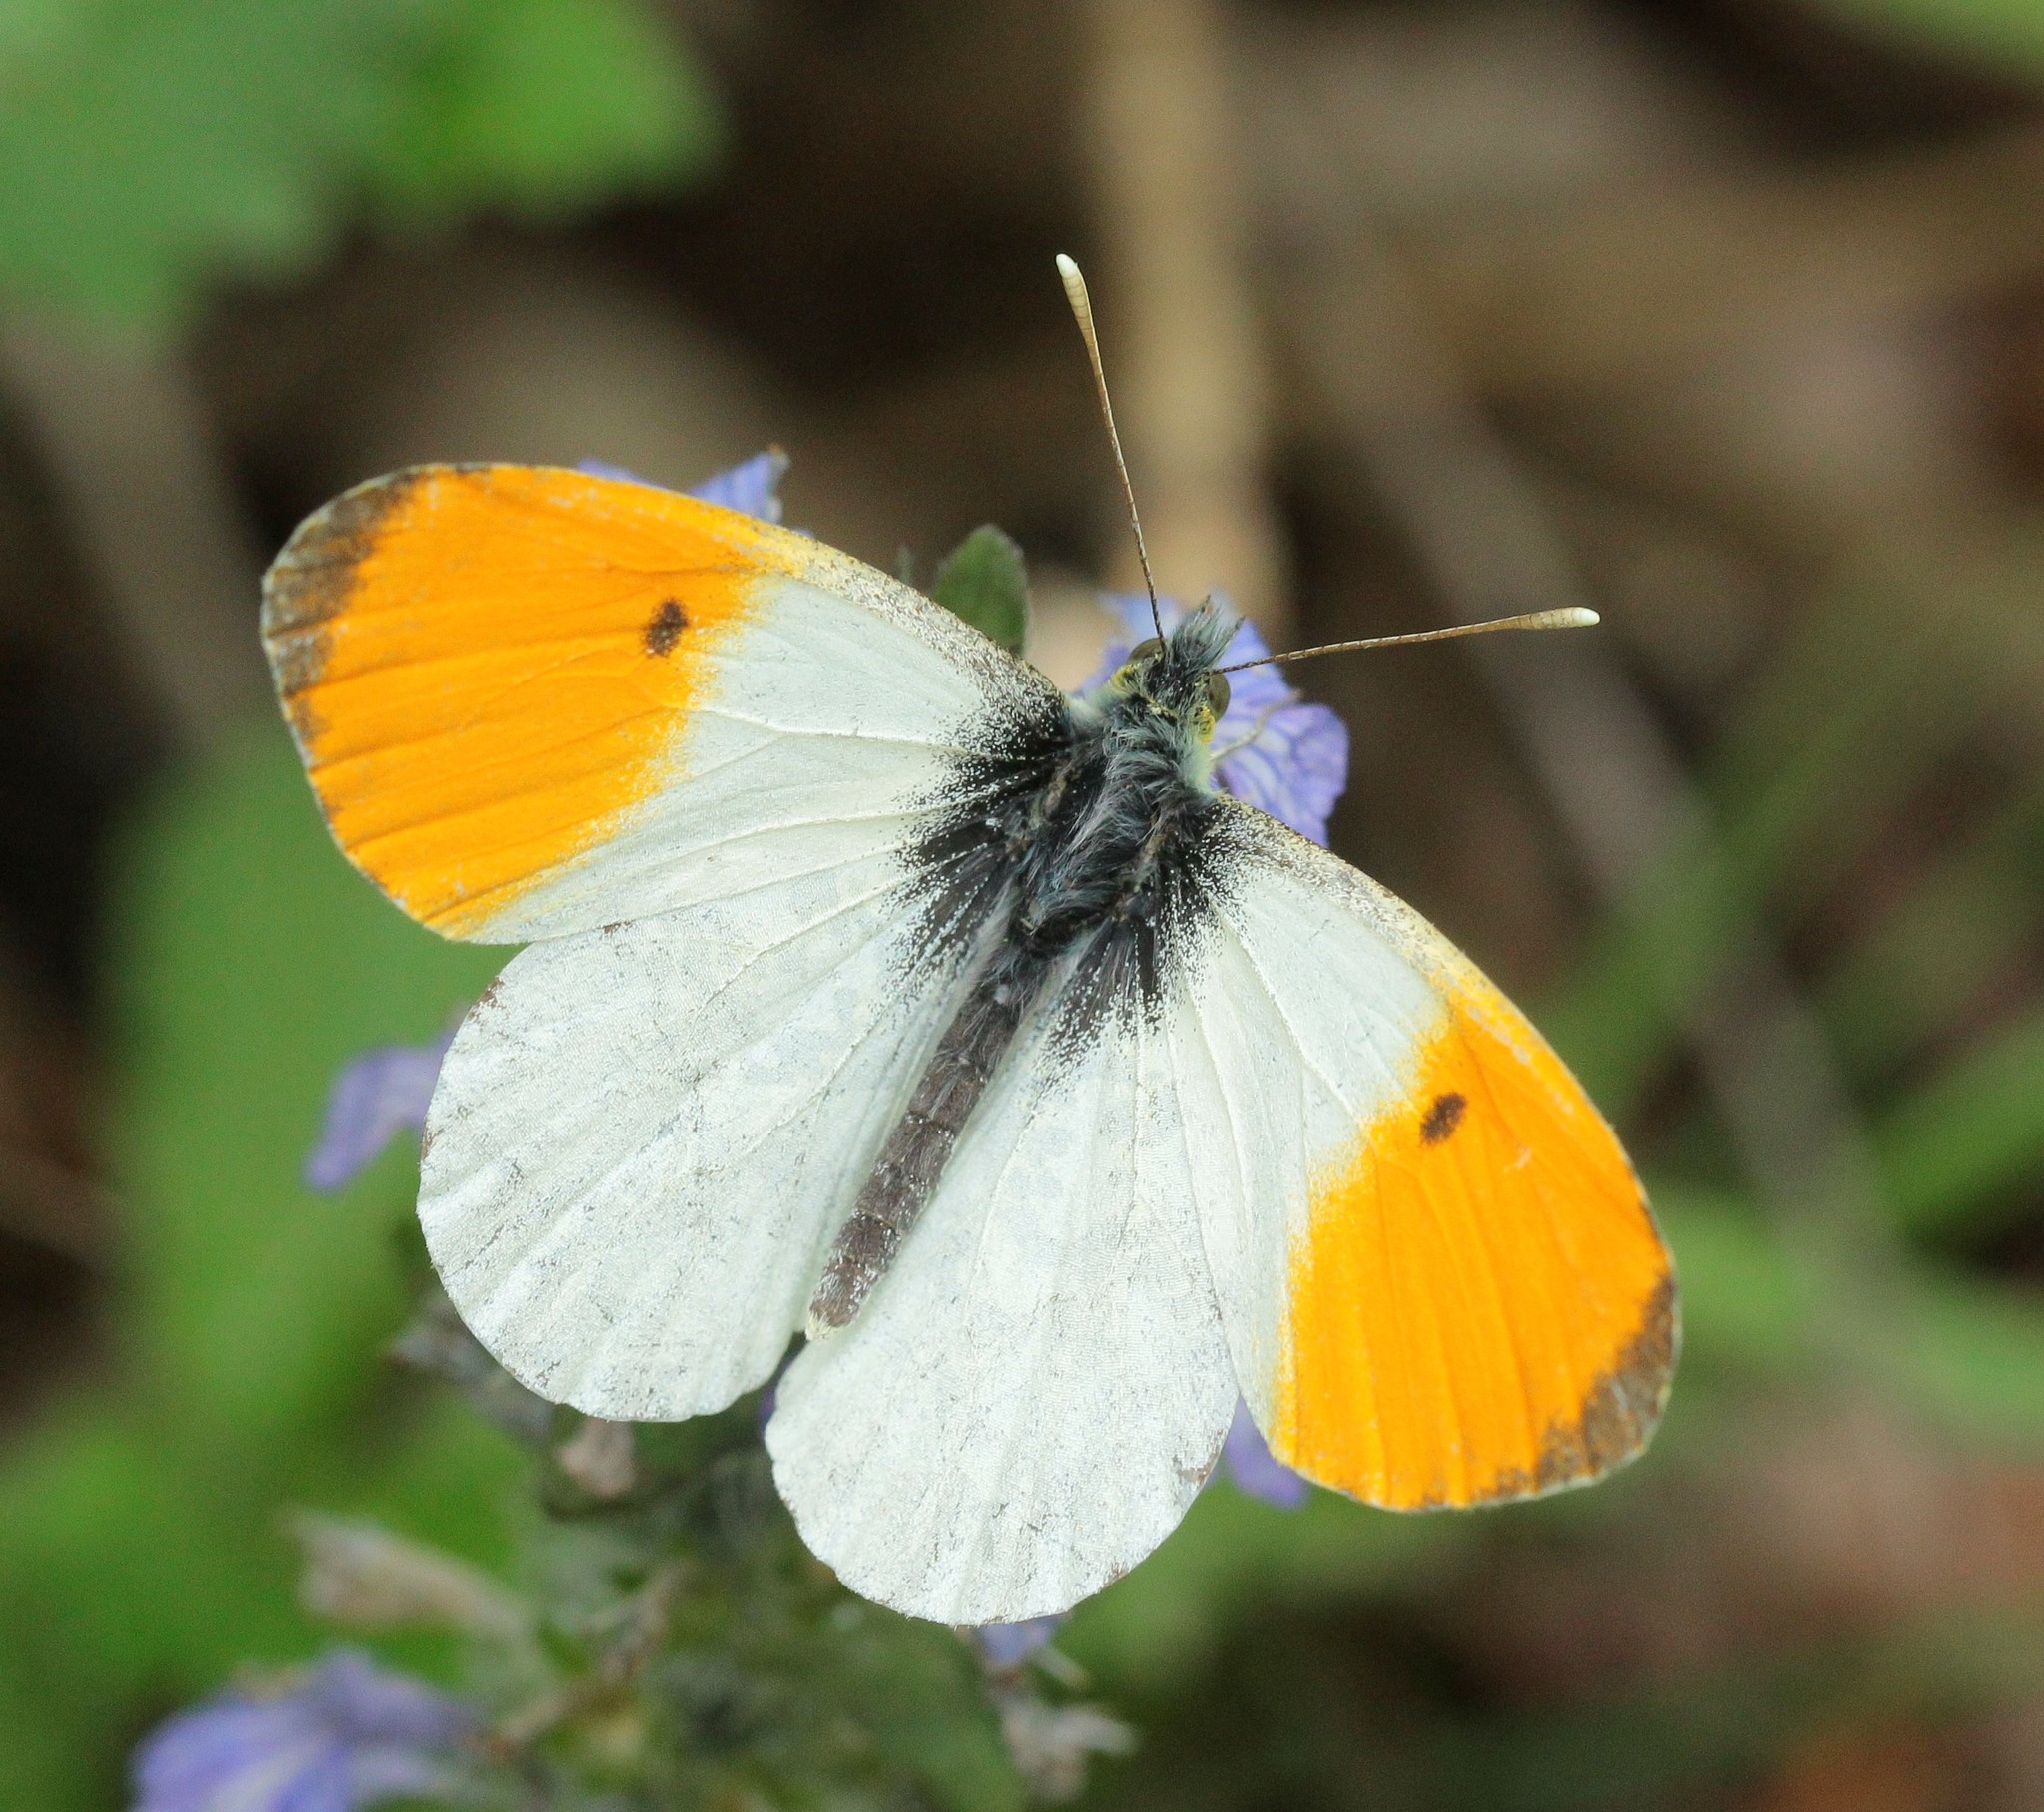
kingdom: Animalia
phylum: Arthropoda
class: Insecta
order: Lepidoptera
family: Pieridae
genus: Anthocharis
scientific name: Anthocharis cardamines
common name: Orange-tip
